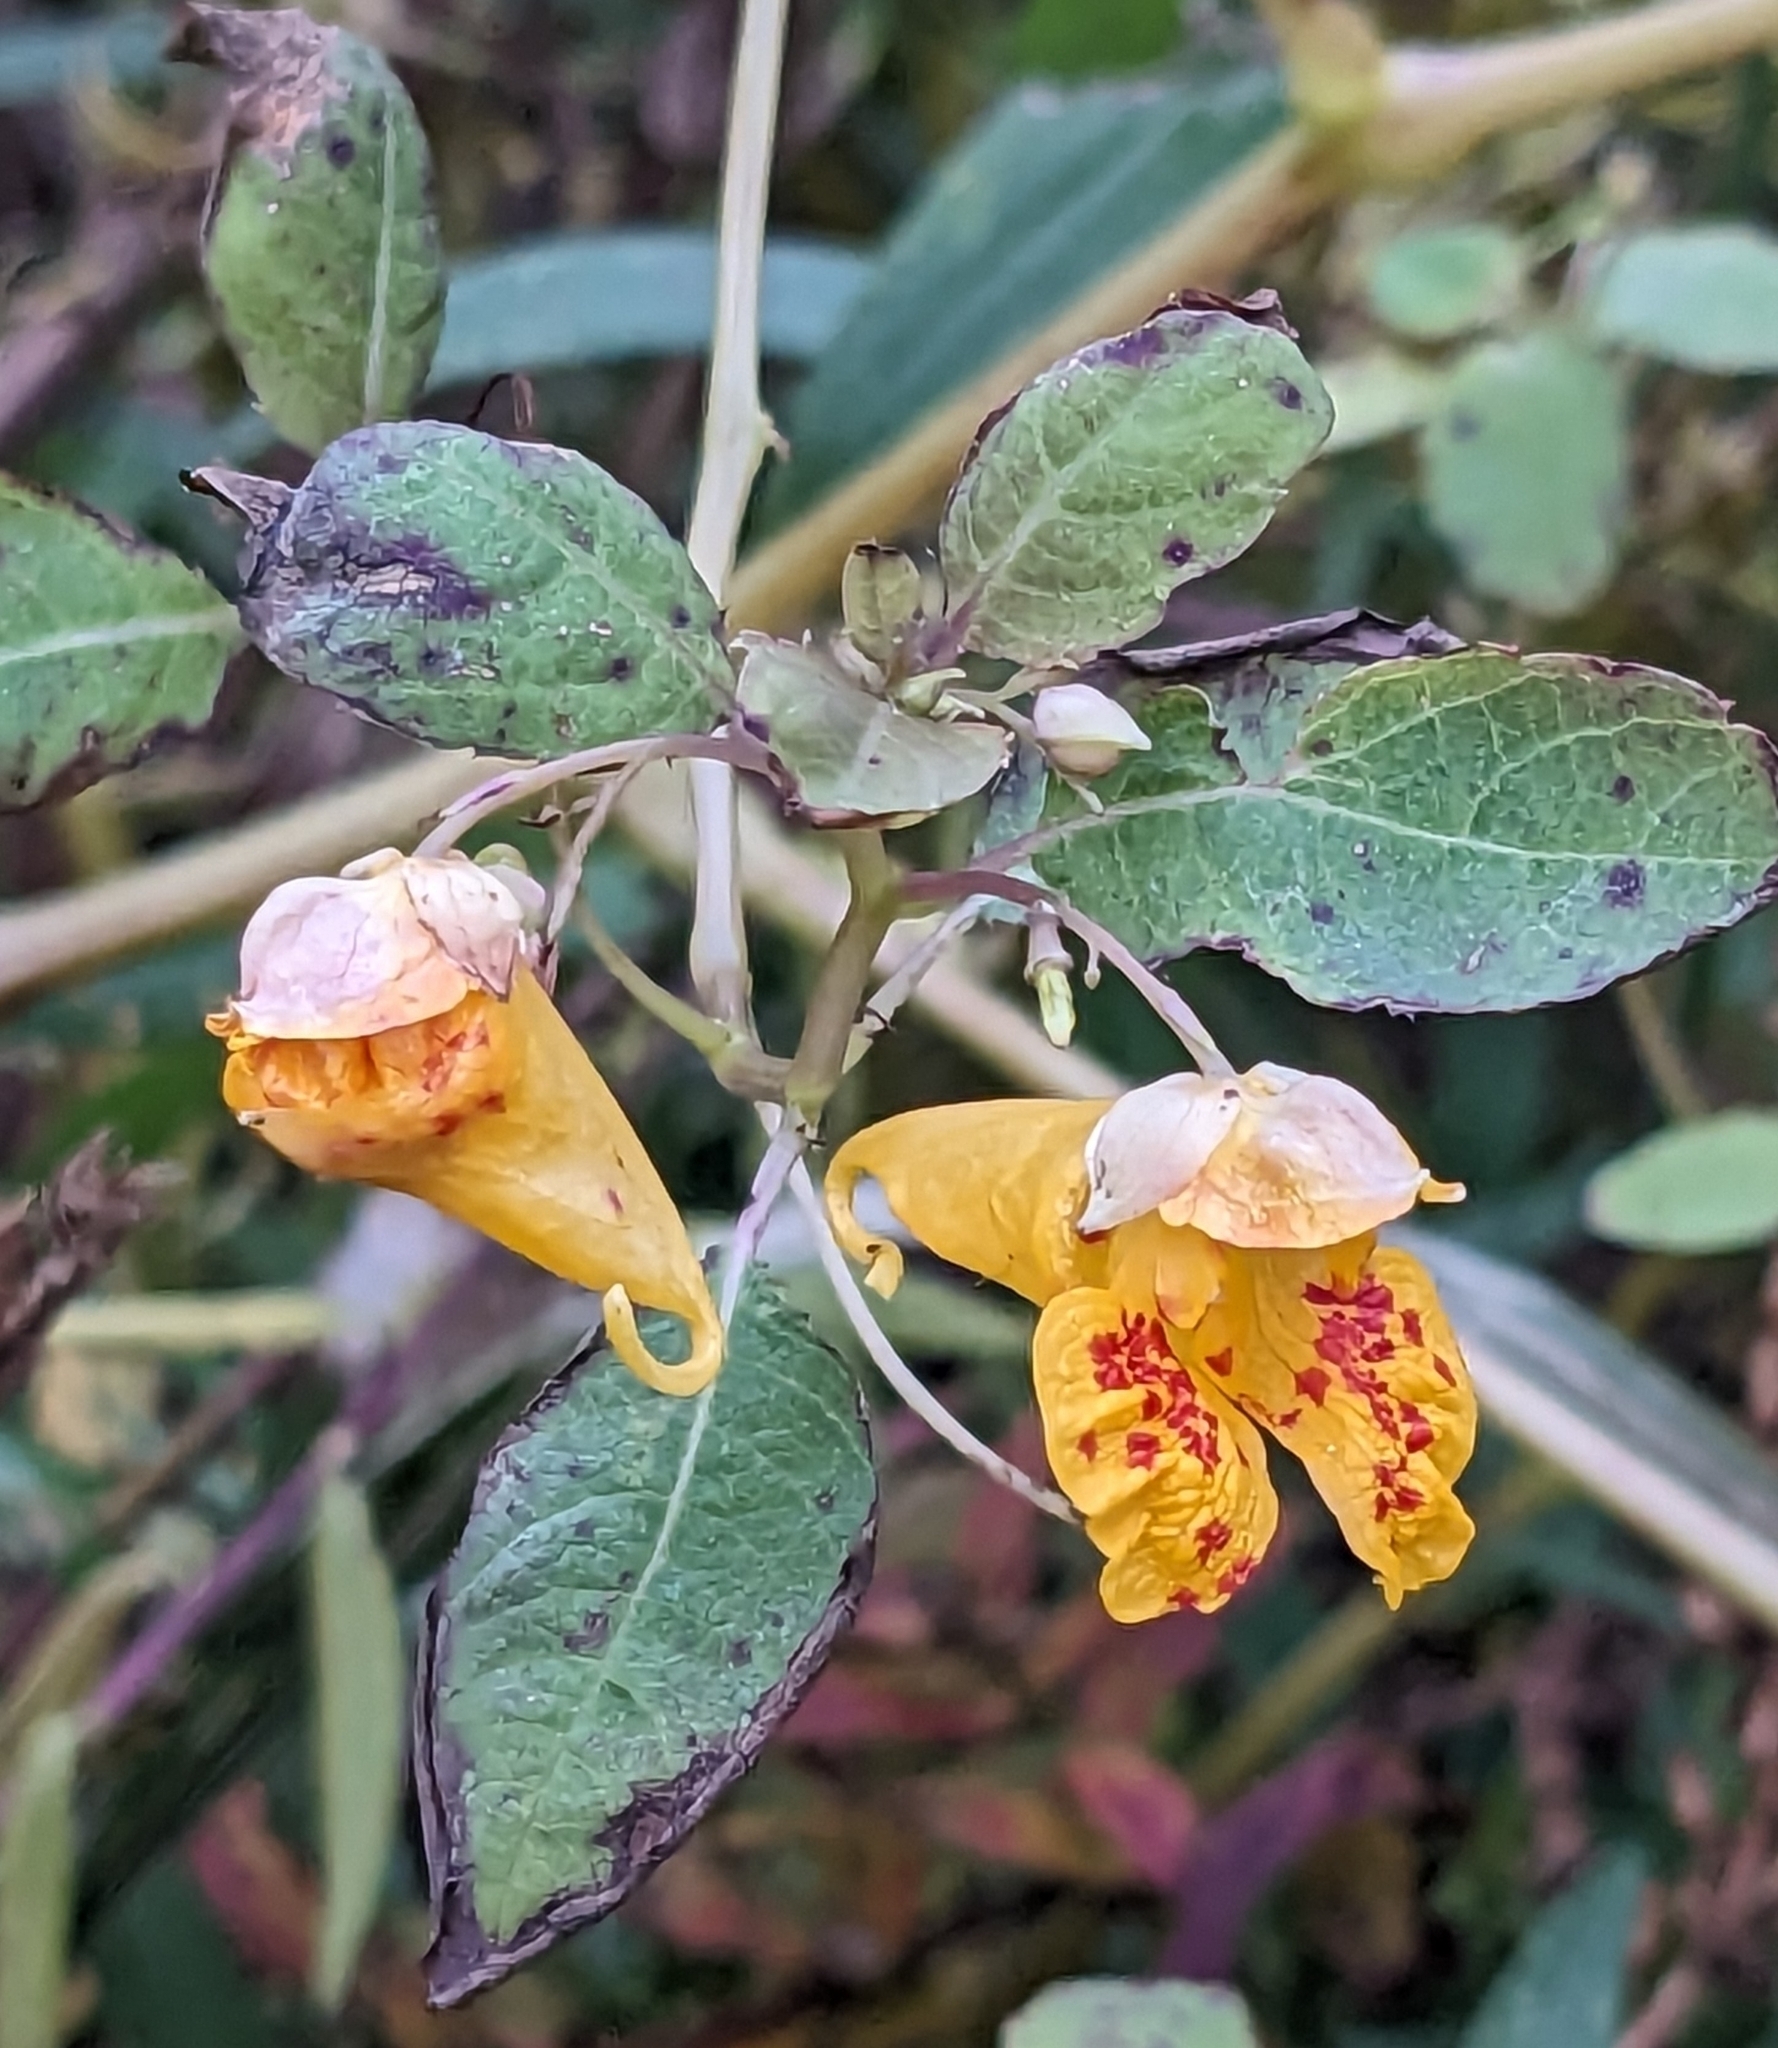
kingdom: Plantae
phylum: Tracheophyta
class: Magnoliopsida
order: Ericales
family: Balsaminaceae
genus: Impatiens
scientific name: Impatiens capensis
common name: Orange balsam
